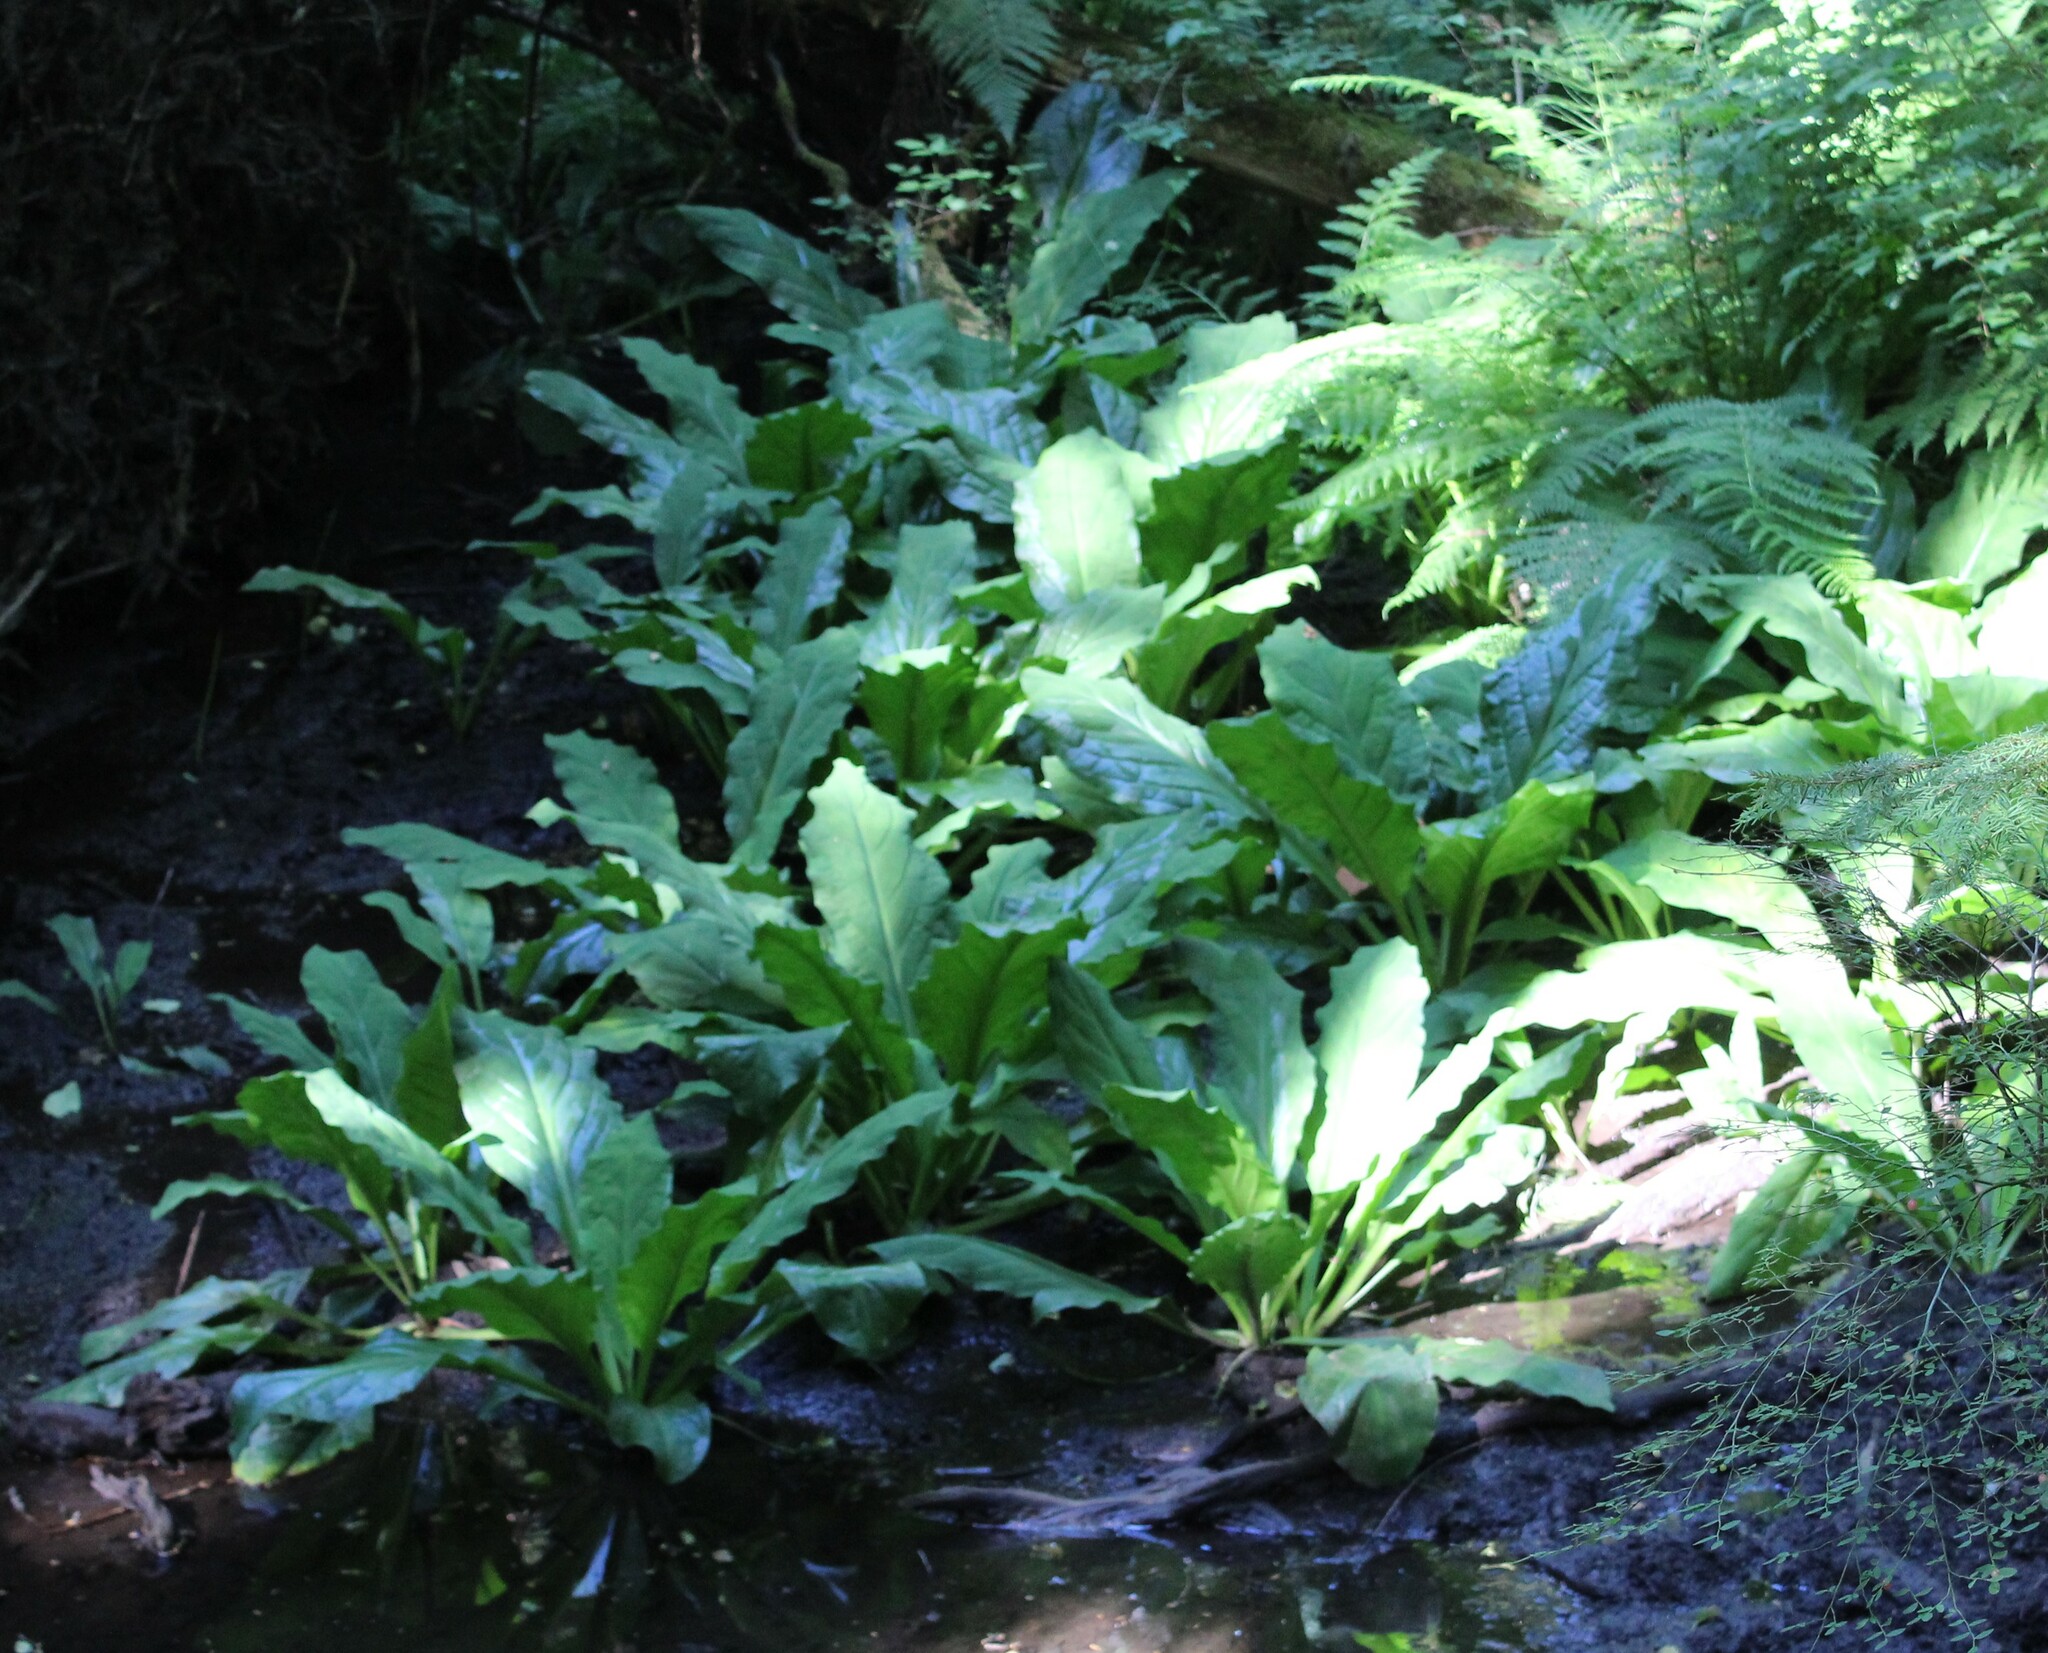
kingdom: Plantae
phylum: Tracheophyta
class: Liliopsida
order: Alismatales
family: Araceae
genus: Lysichiton
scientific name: Lysichiton americanus
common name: American skunk cabbage
